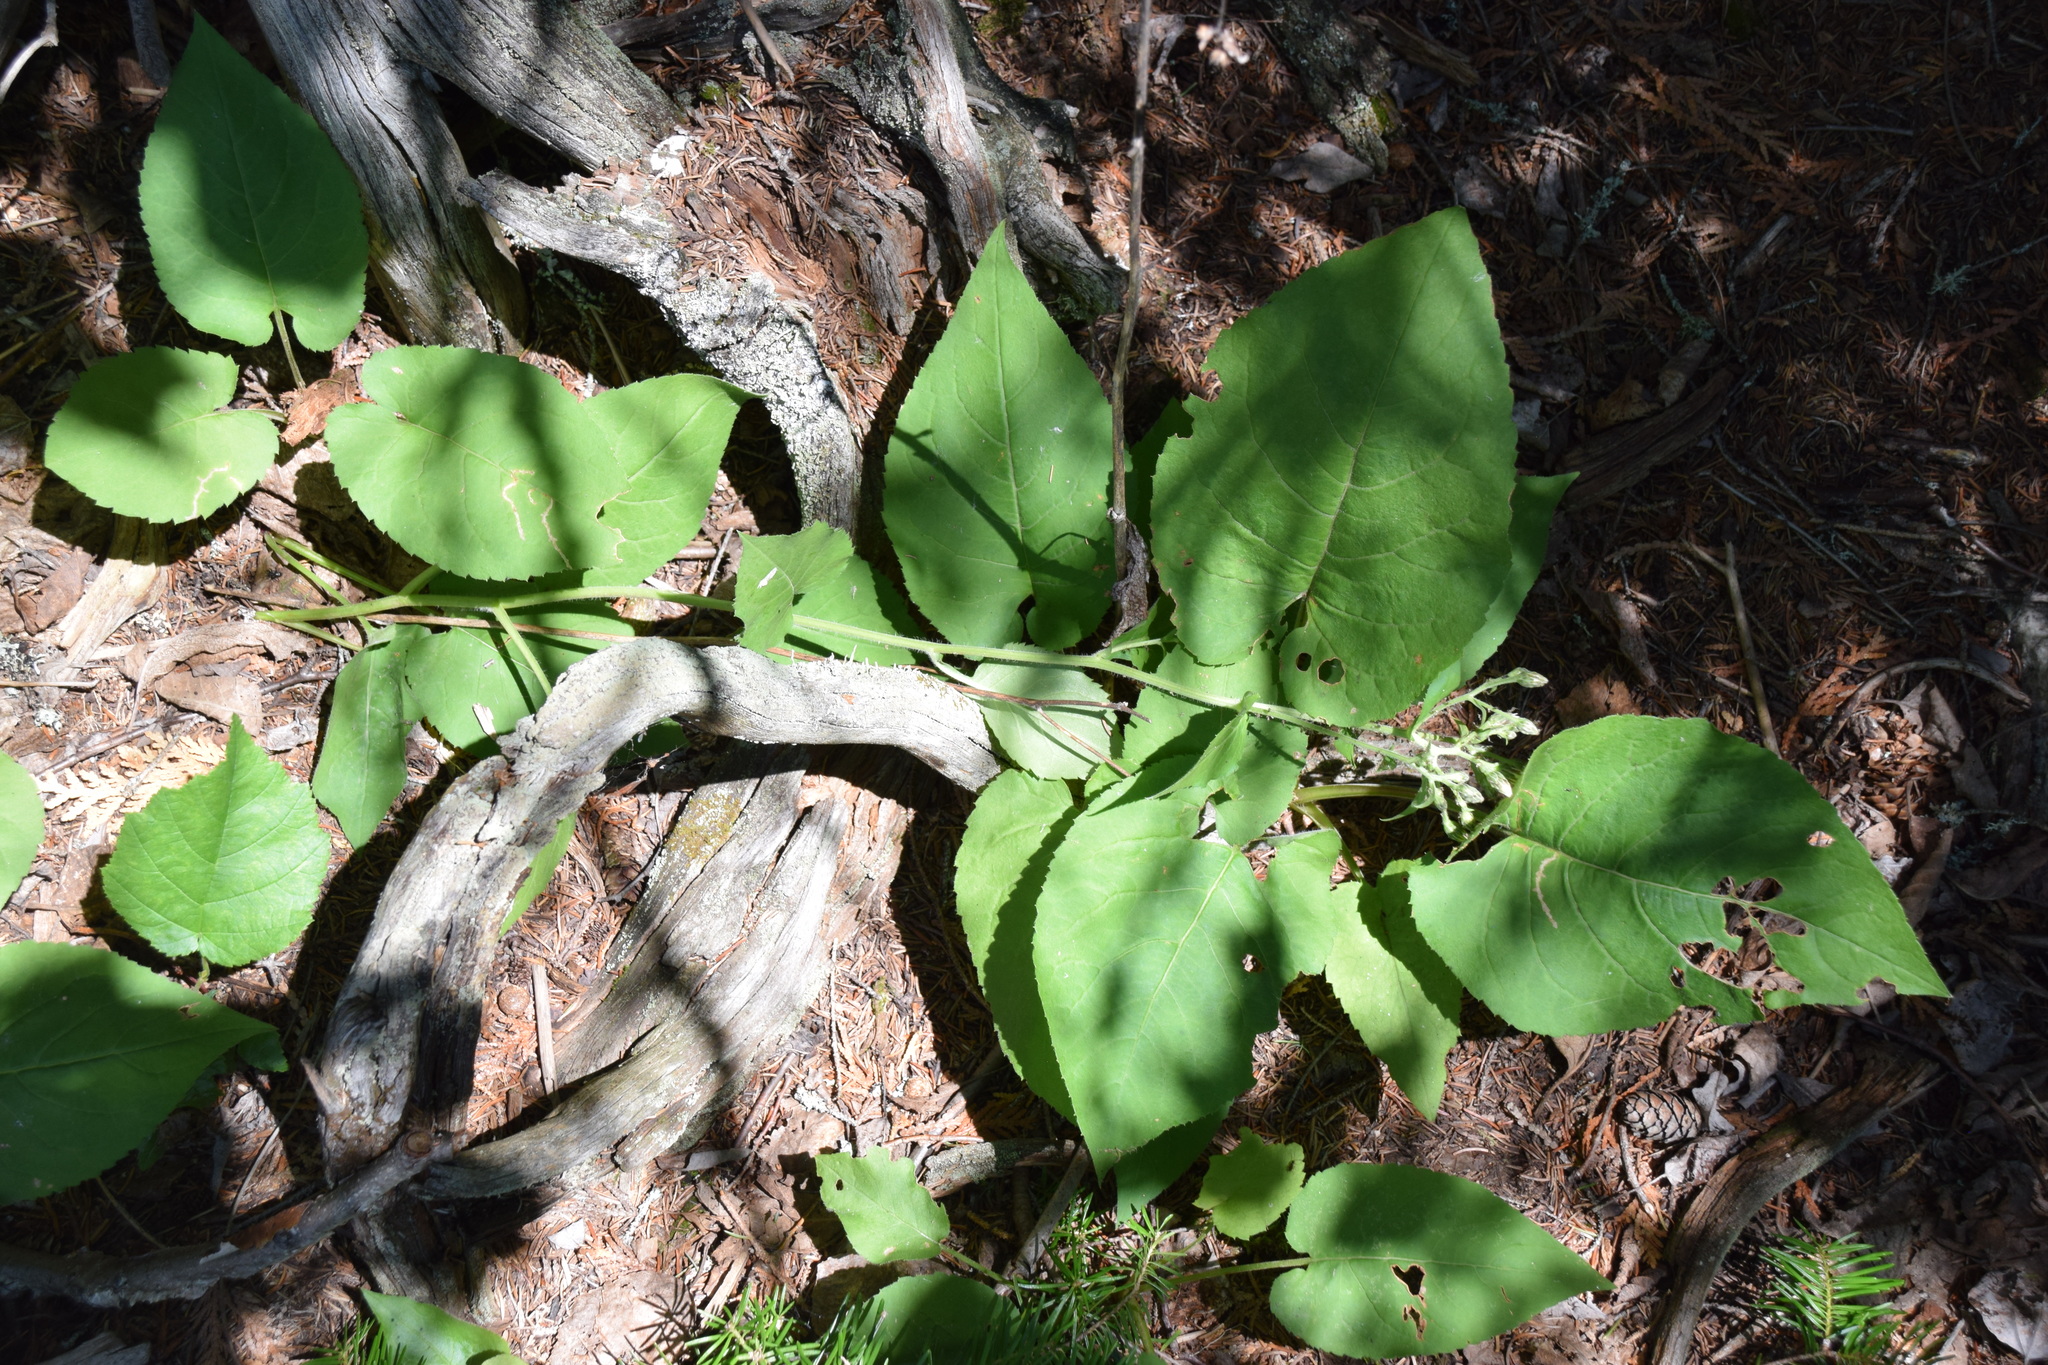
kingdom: Plantae
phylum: Tracheophyta
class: Magnoliopsida
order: Asterales
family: Asteraceae
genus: Eurybia
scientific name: Eurybia macrophylla
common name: Big-leaved aster
